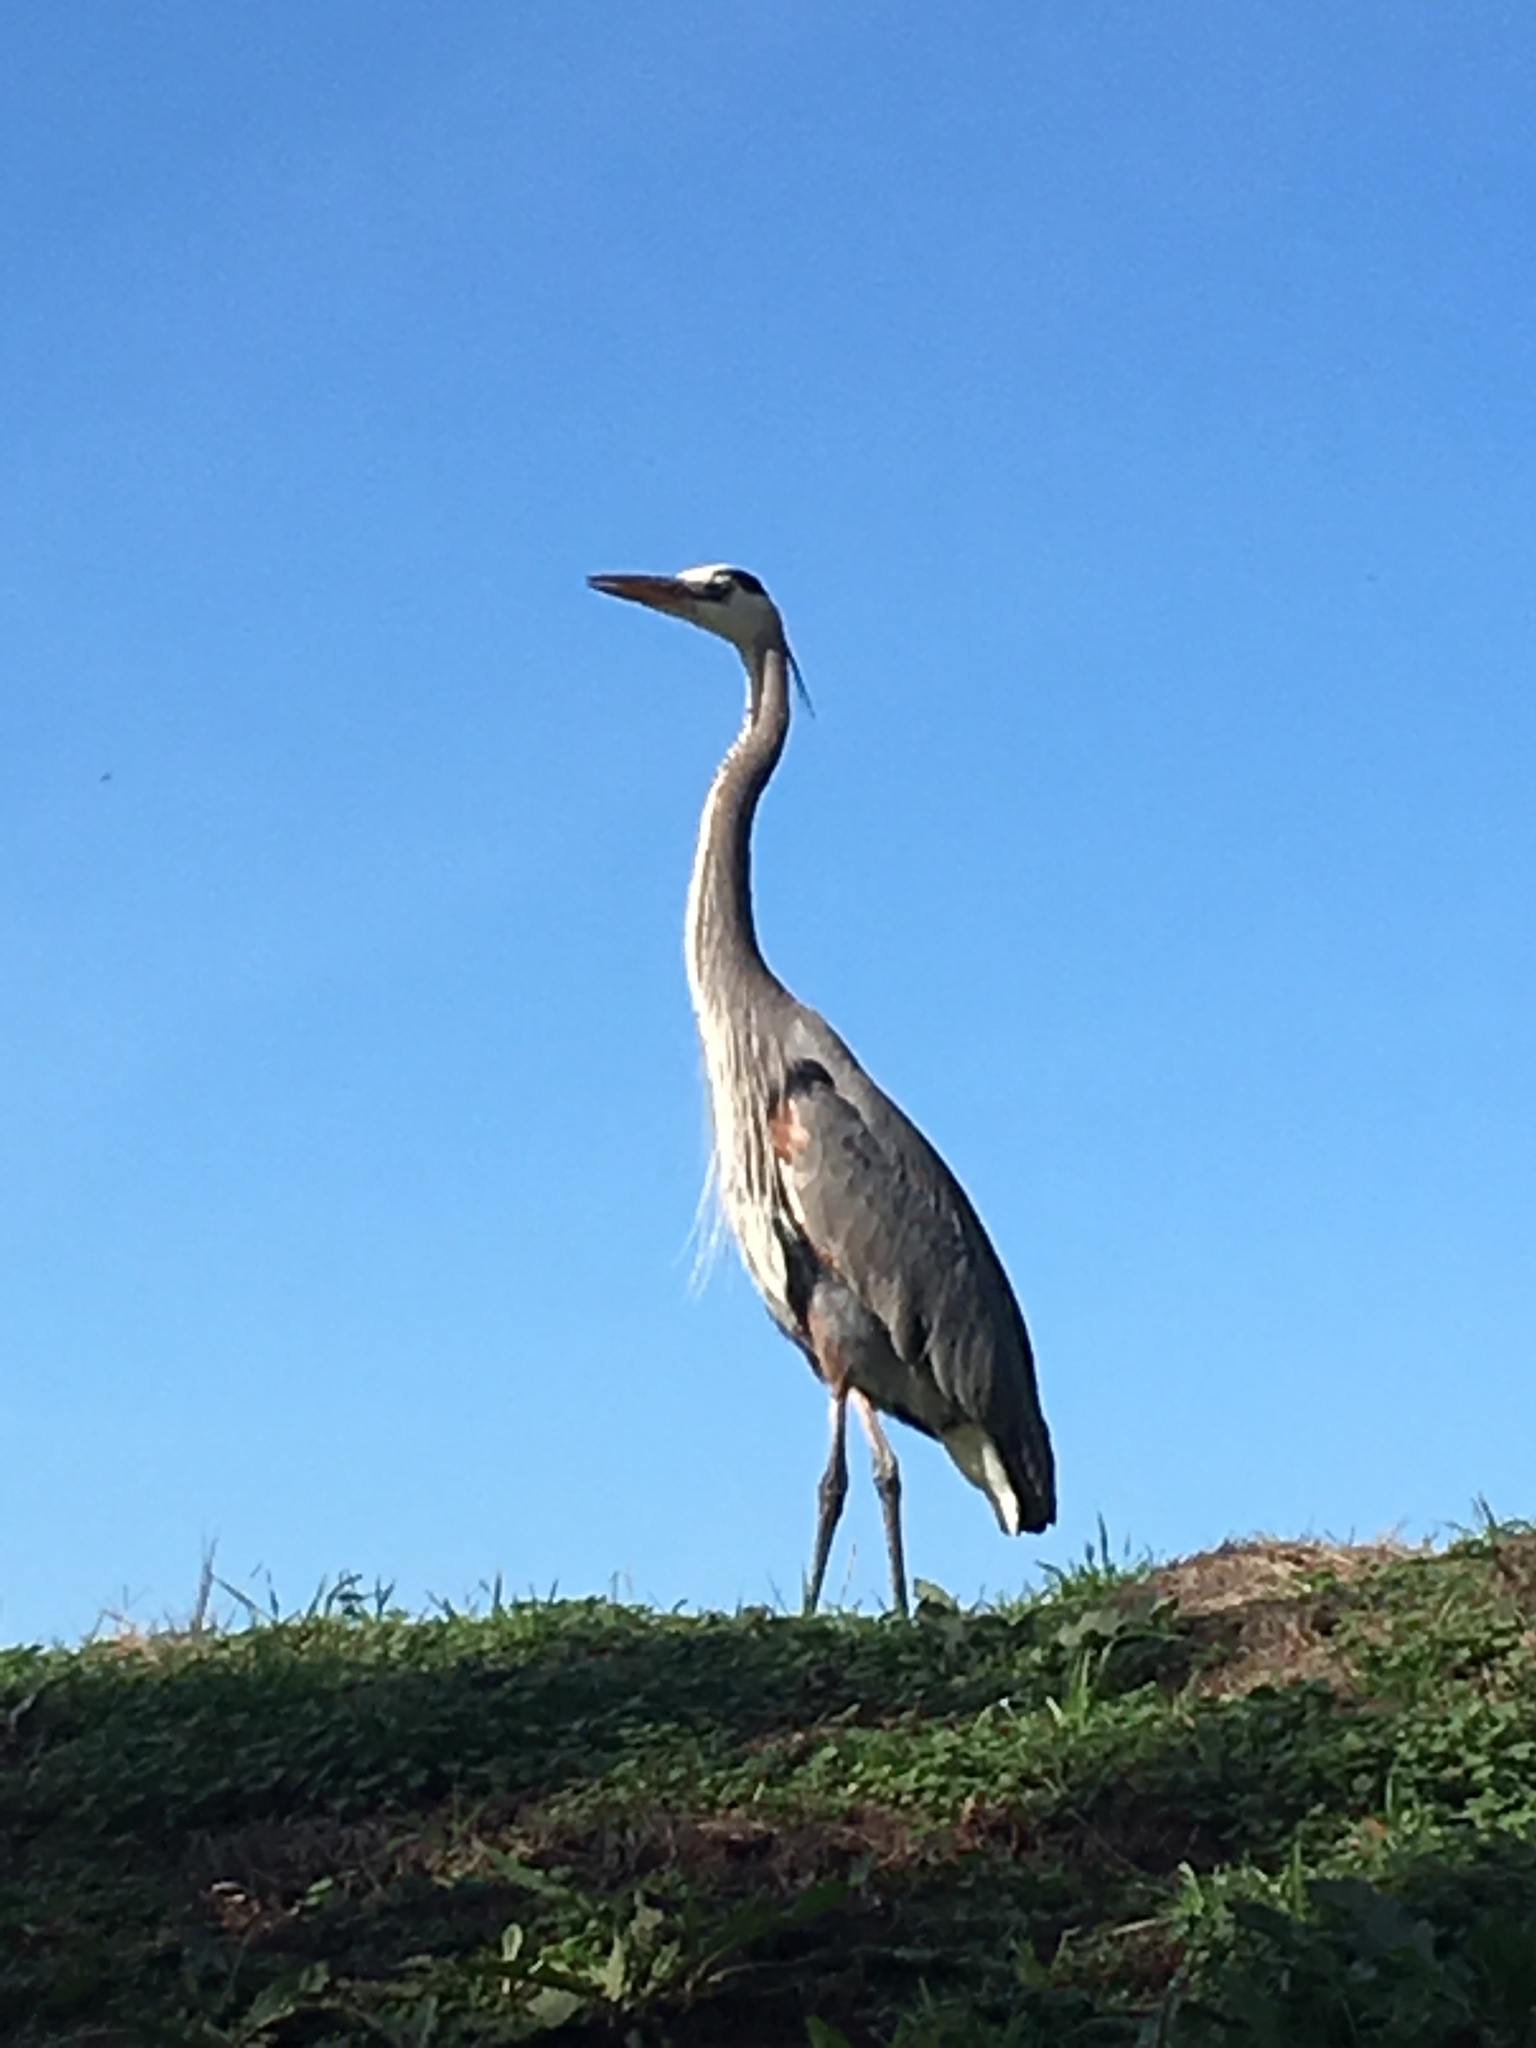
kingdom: Animalia
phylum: Chordata
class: Aves
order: Pelecaniformes
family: Ardeidae
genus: Ardea
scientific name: Ardea herodias
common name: Great blue heron
